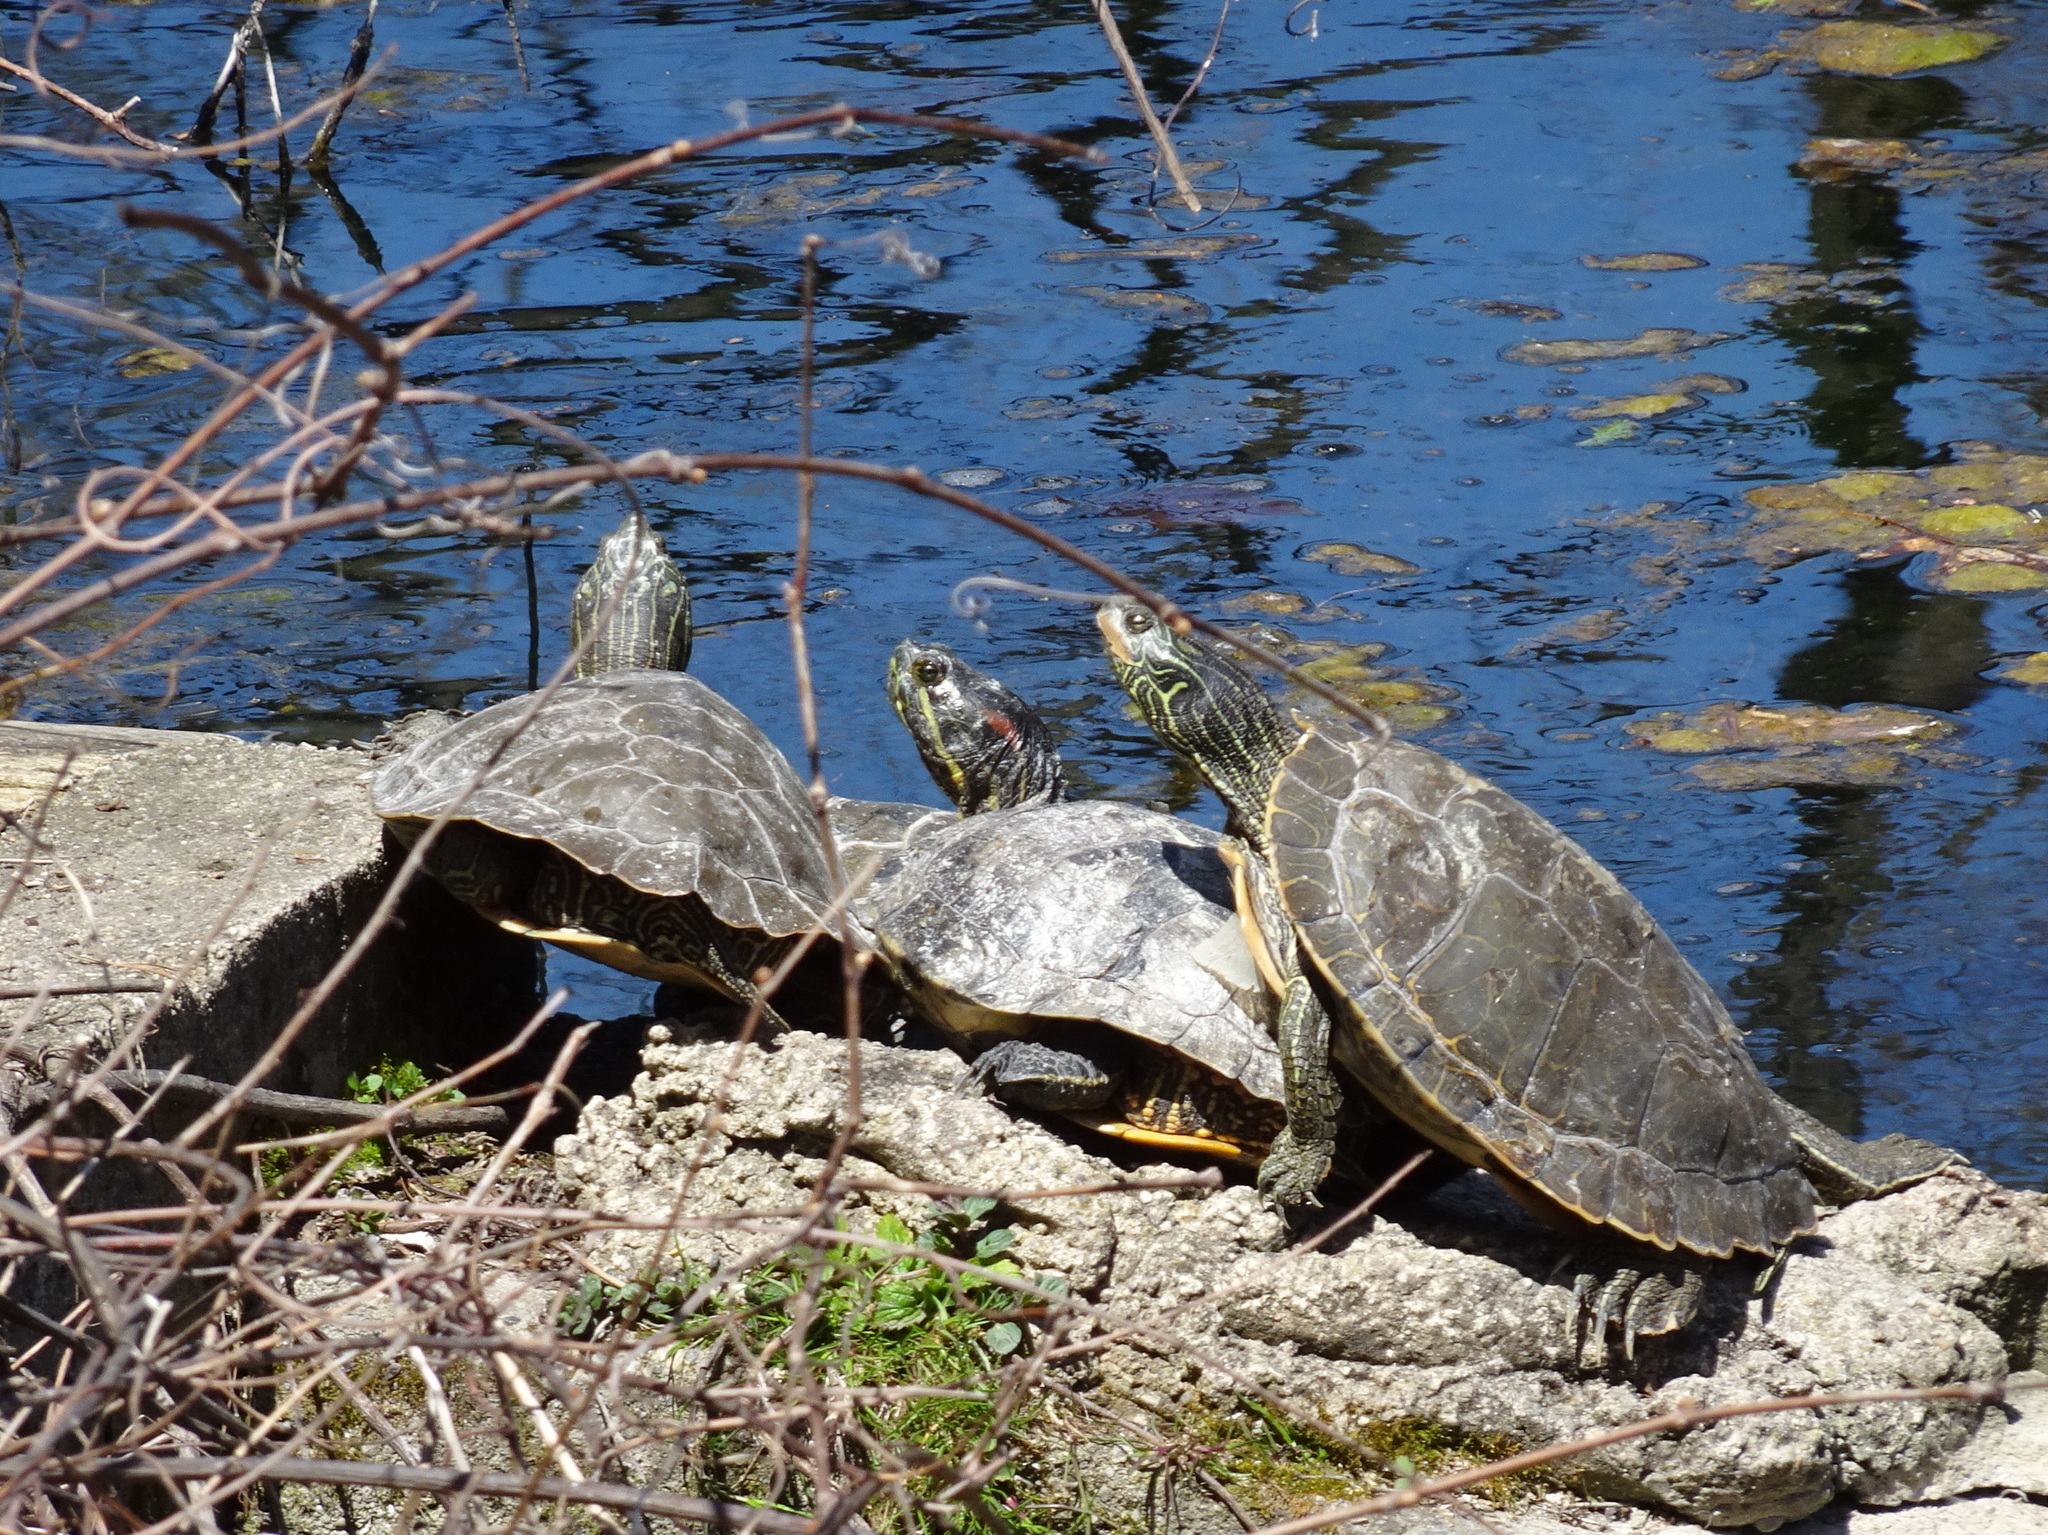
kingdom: Animalia
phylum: Chordata
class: Testudines
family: Emydidae
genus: Graptemys
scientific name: Graptemys geographica
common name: Common map turtle
